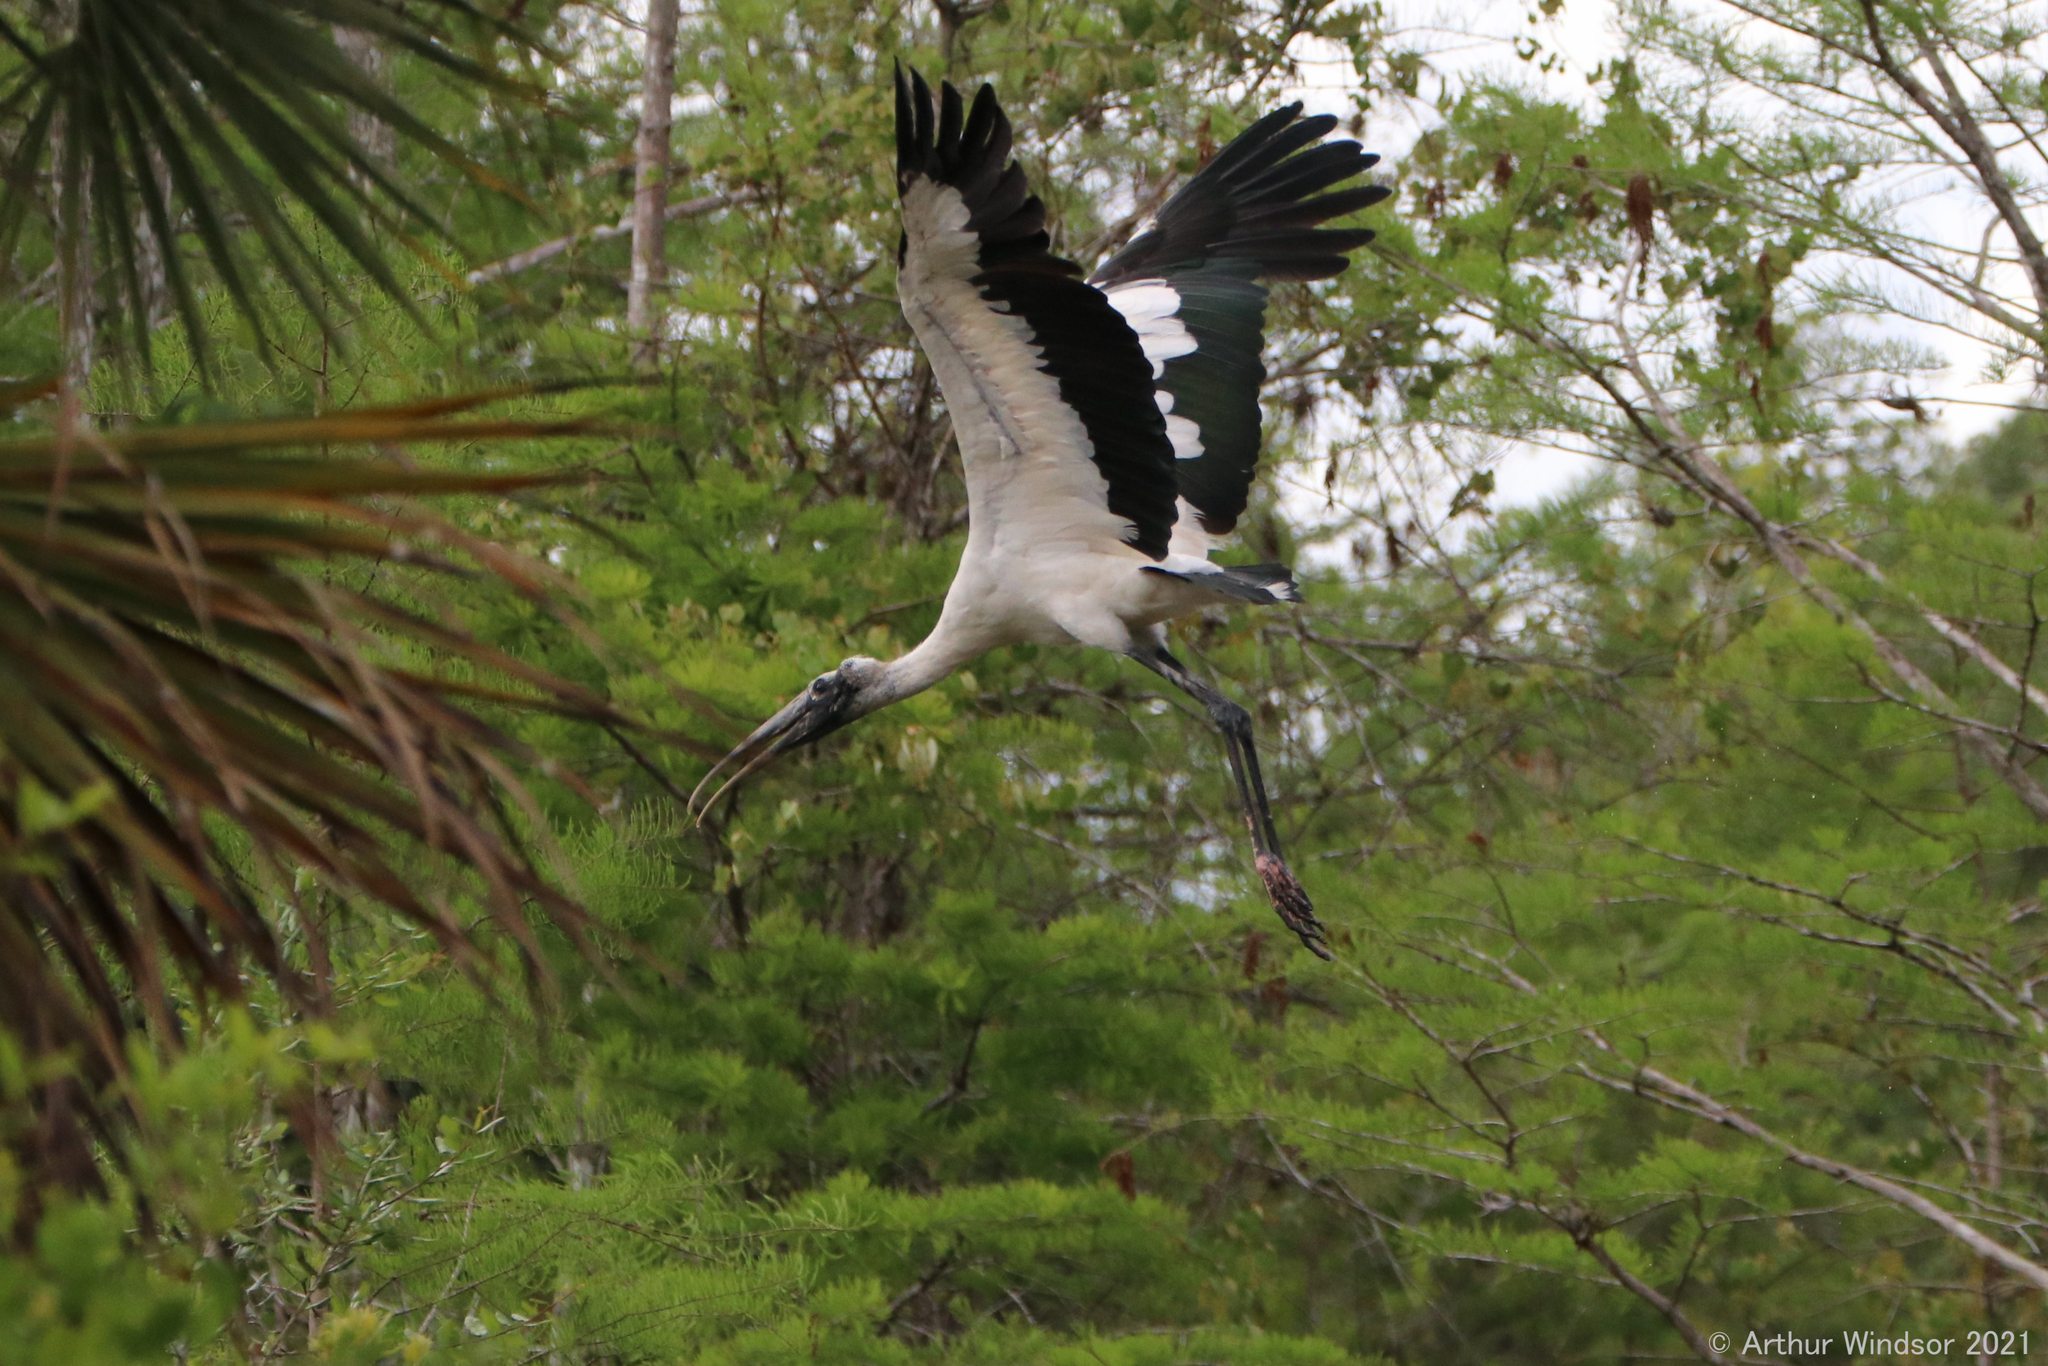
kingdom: Animalia
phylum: Chordata
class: Aves
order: Ciconiiformes
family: Ciconiidae
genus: Mycteria
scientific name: Mycteria americana
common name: Wood stork
